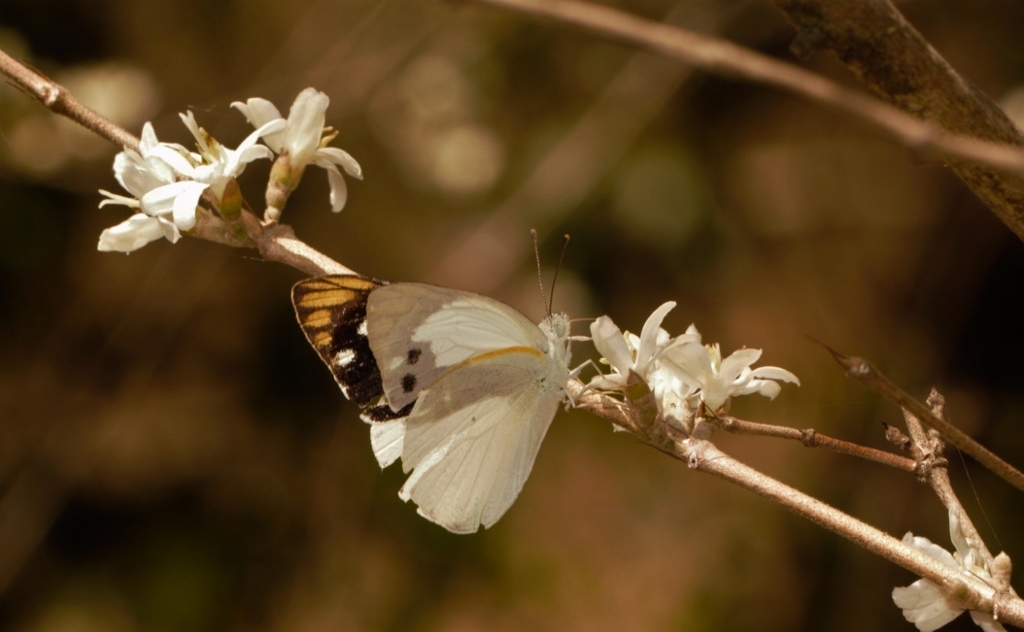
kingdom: Animalia
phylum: Arthropoda
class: Insecta
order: Lepidoptera
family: Pieridae
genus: Colotis
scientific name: Colotis eris
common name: Banded gold tip
